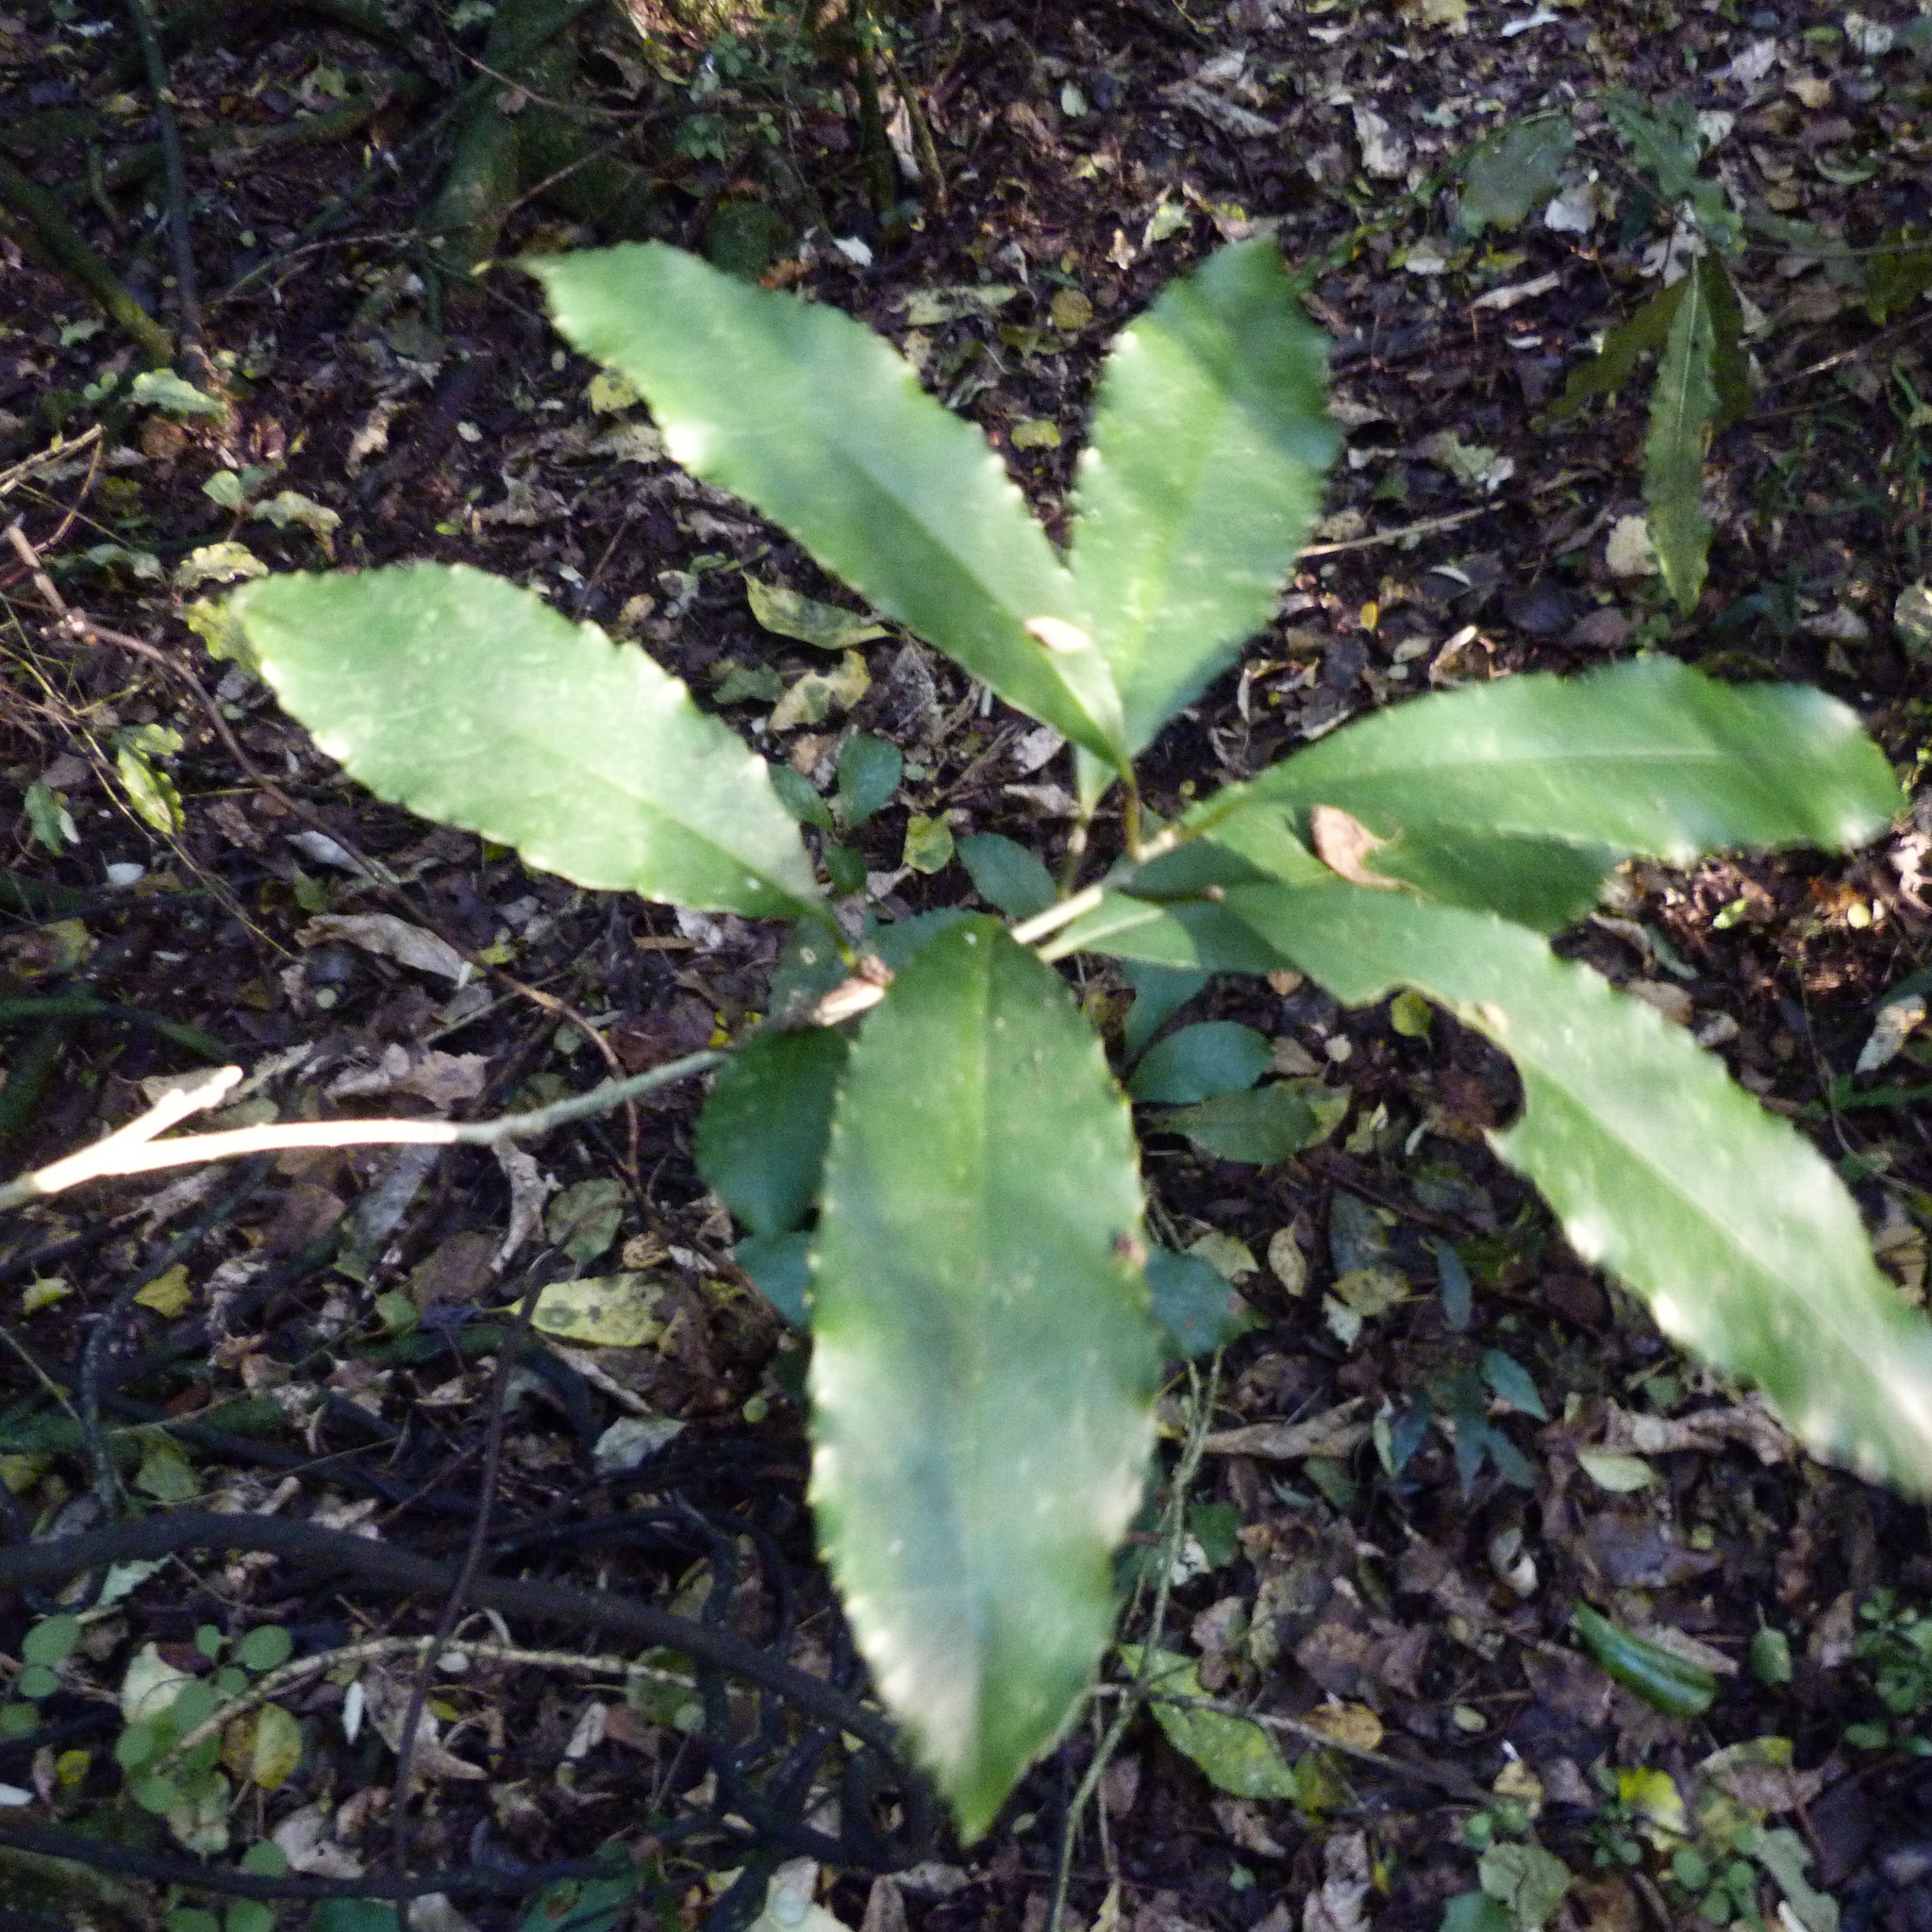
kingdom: Plantae
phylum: Tracheophyta
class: Magnoliopsida
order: Malpighiales
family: Violaceae
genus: Melicytus
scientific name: Melicytus ramiflorus
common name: Mahoe
